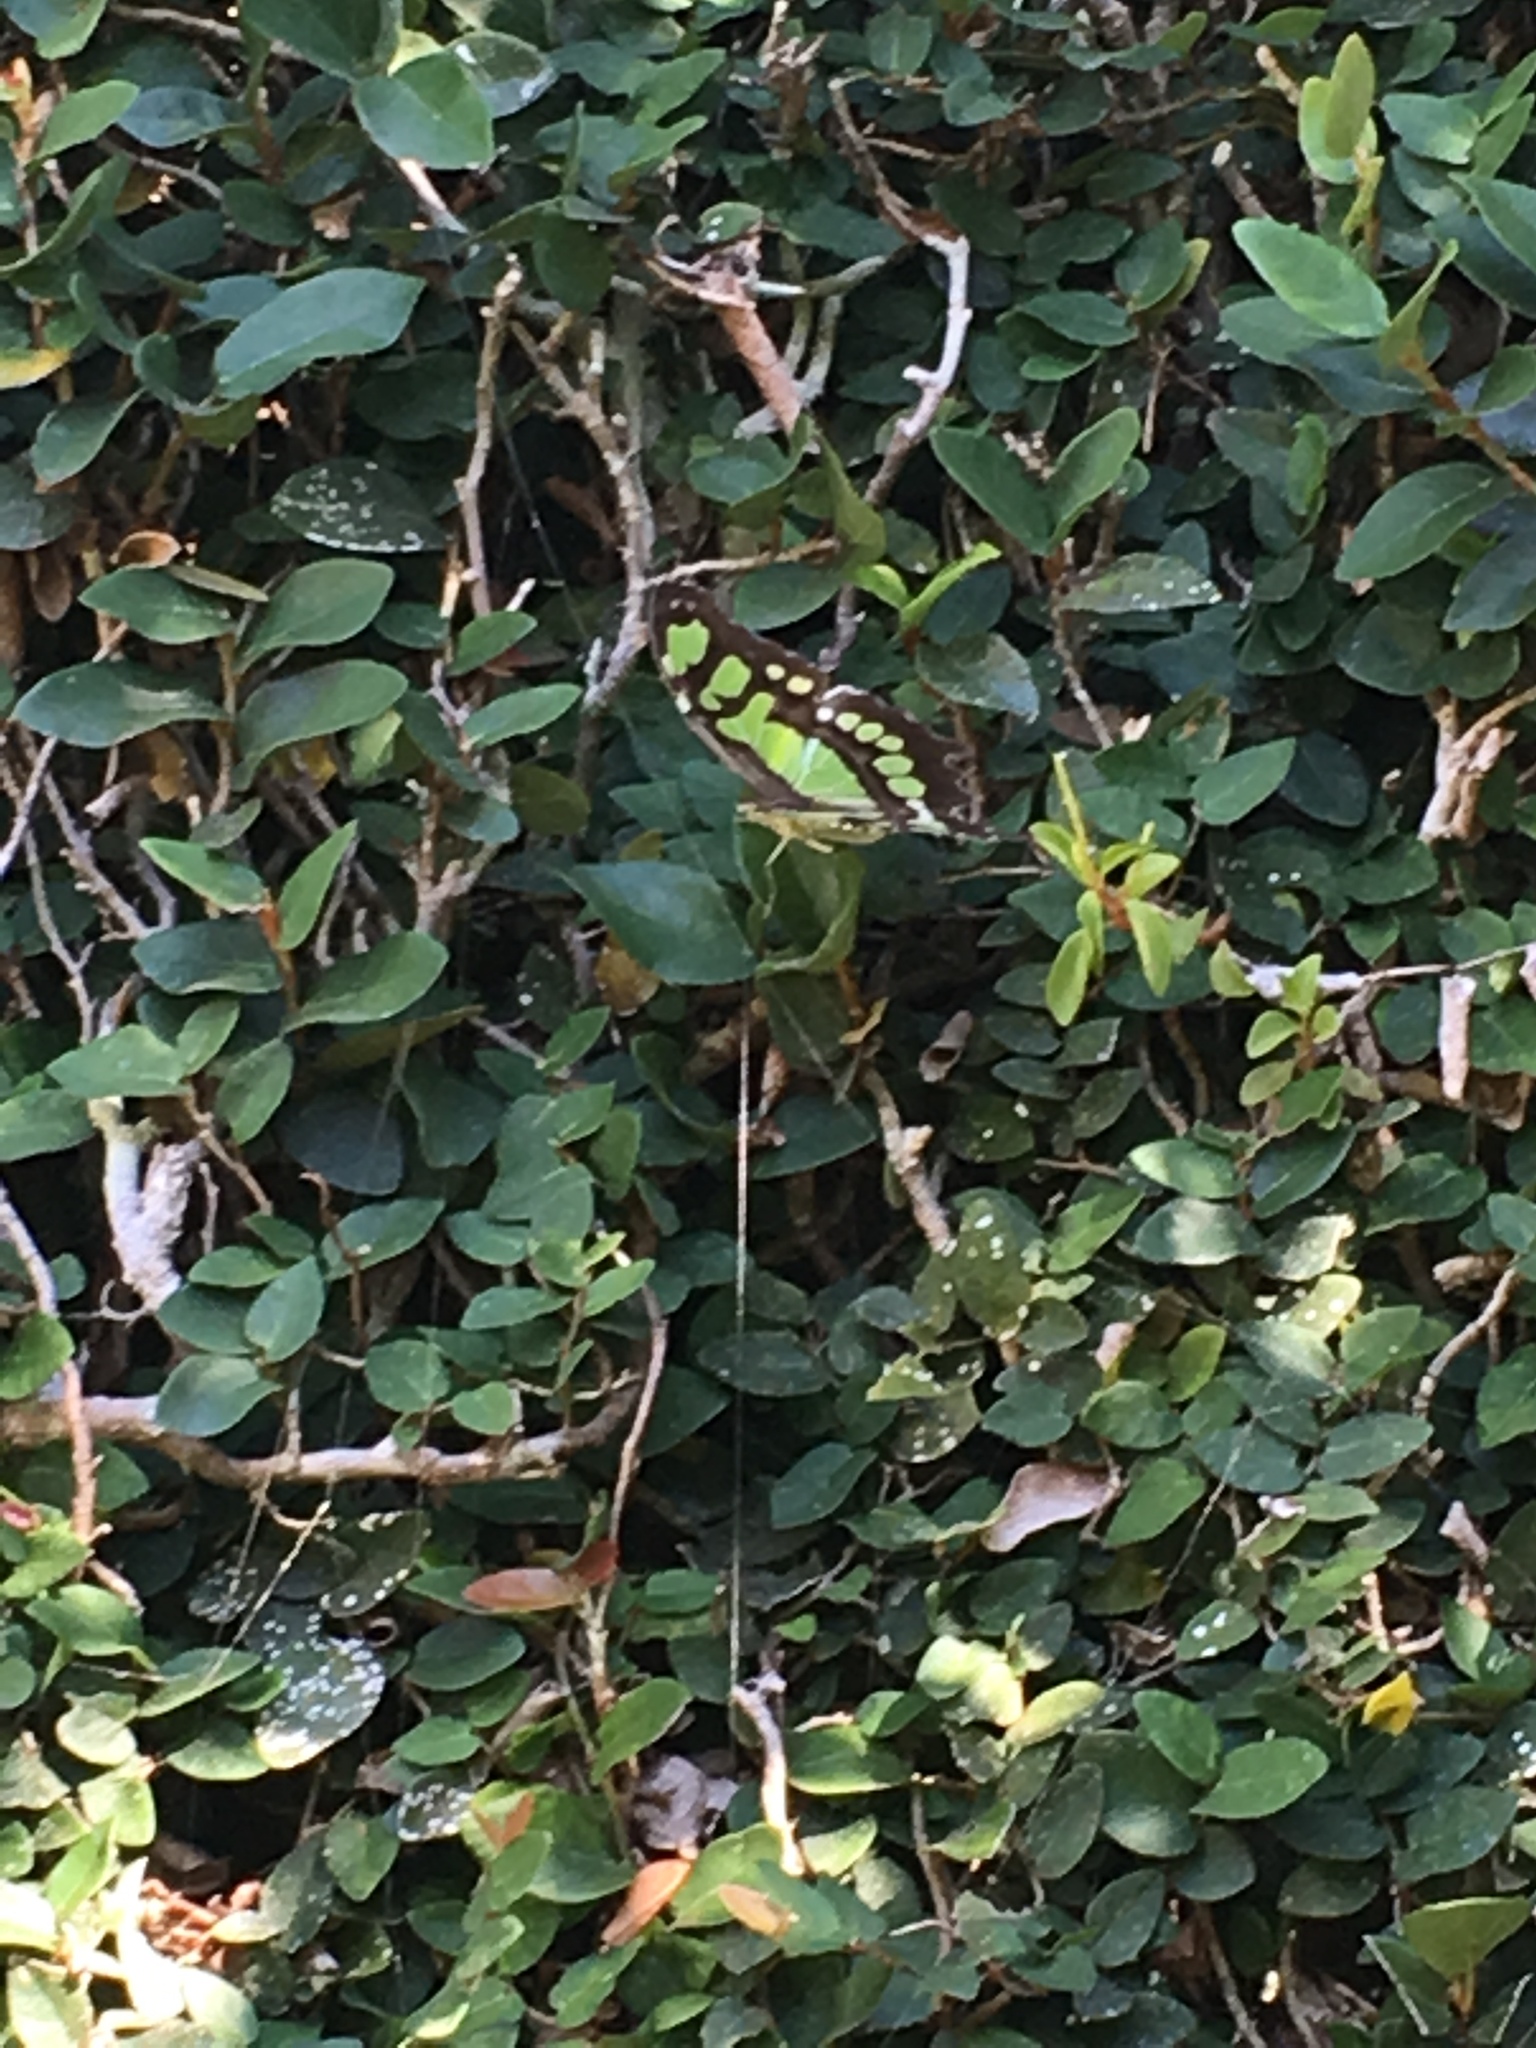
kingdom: Animalia
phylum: Arthropoda
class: Insecta
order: Lepidoptera
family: Nymphalidae
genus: Siproeta
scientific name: Siproeta stelenes
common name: Malachite
